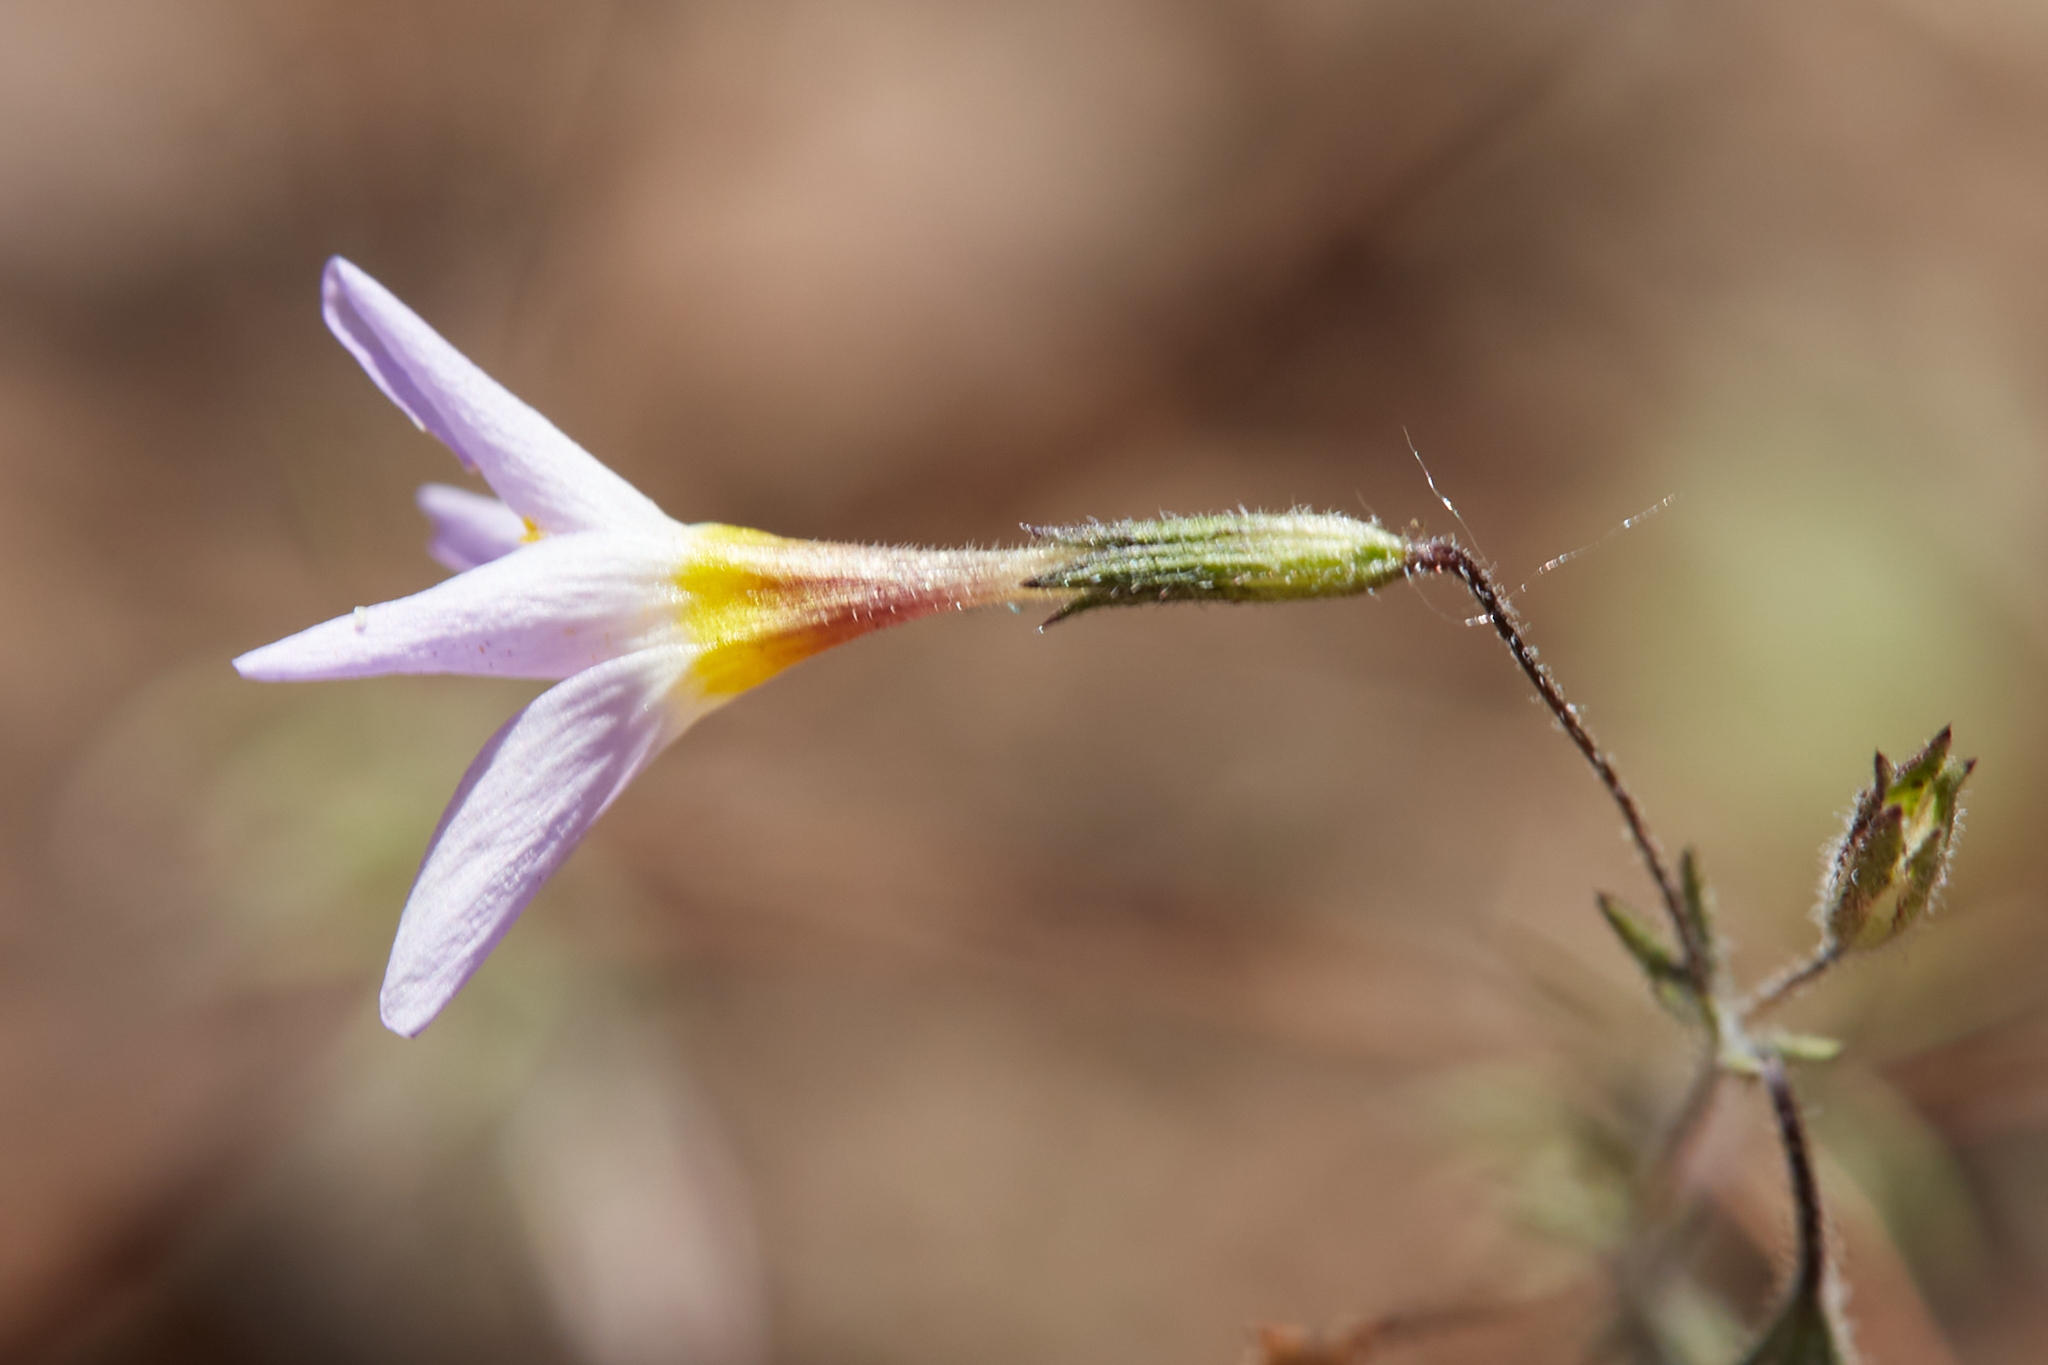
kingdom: Plantae
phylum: Tracheophyta
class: Magnoliopsida
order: Ericales
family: Polemoniaceae
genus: Leptosiphon
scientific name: Leptosiphon ambiguus
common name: Serpentine linanthus
